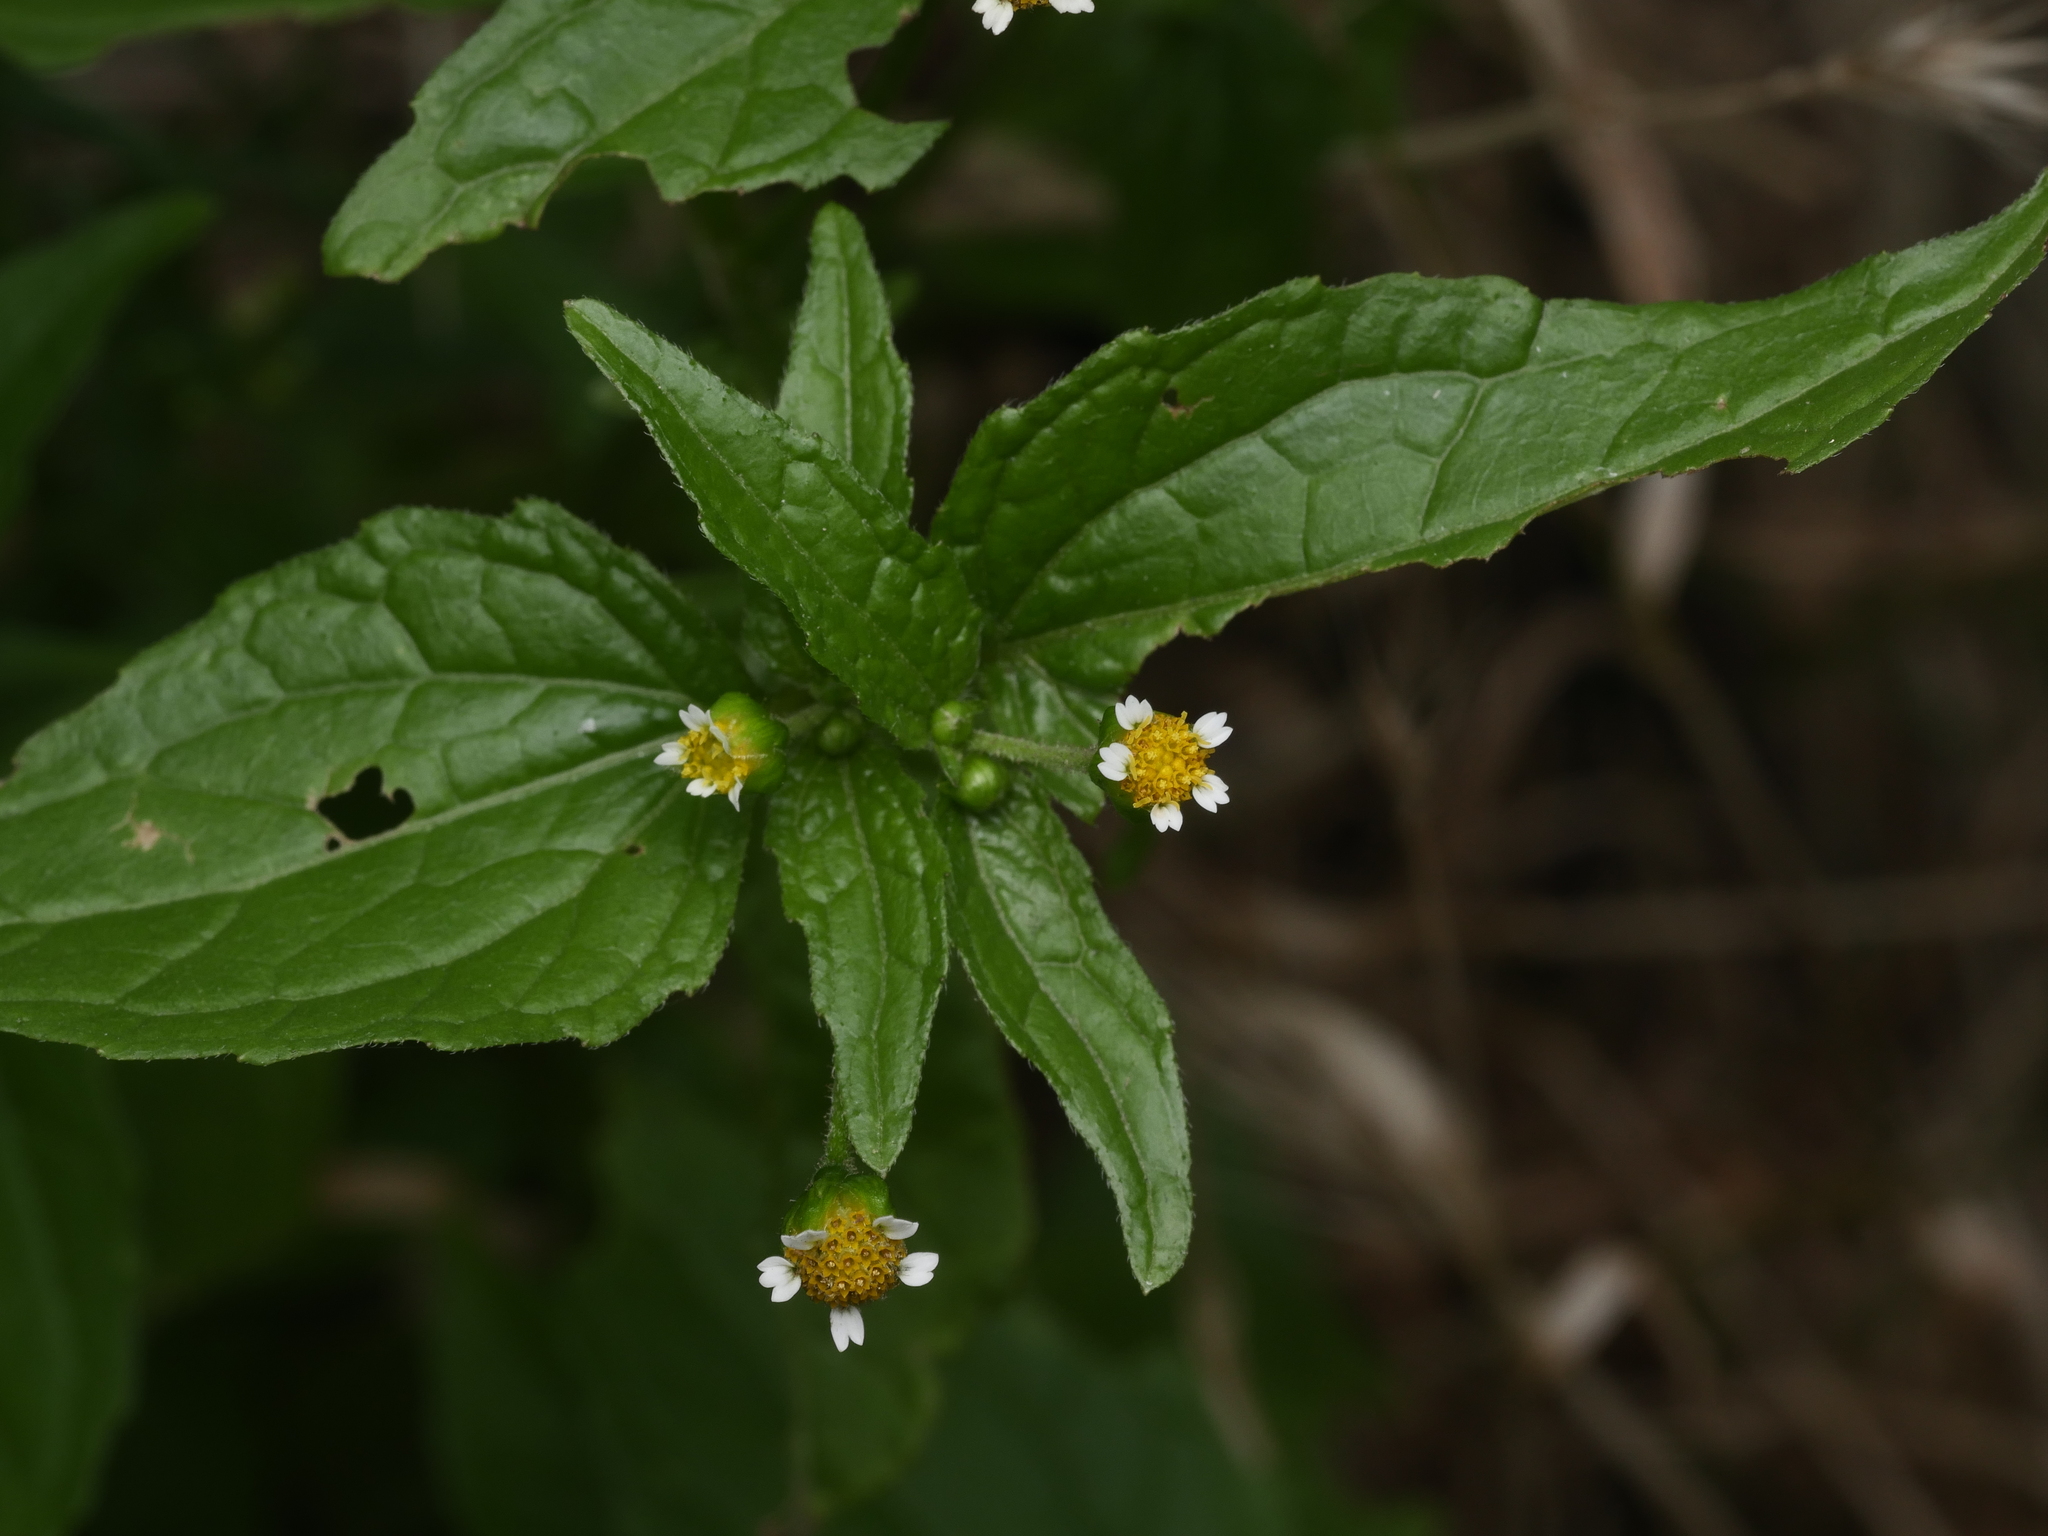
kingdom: Plantae
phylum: Tracheophyta
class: Magnoliopsida
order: Asterales
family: Asteraceae
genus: Galinsoga
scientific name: Galinsoga parviflora
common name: Gallant soldier
